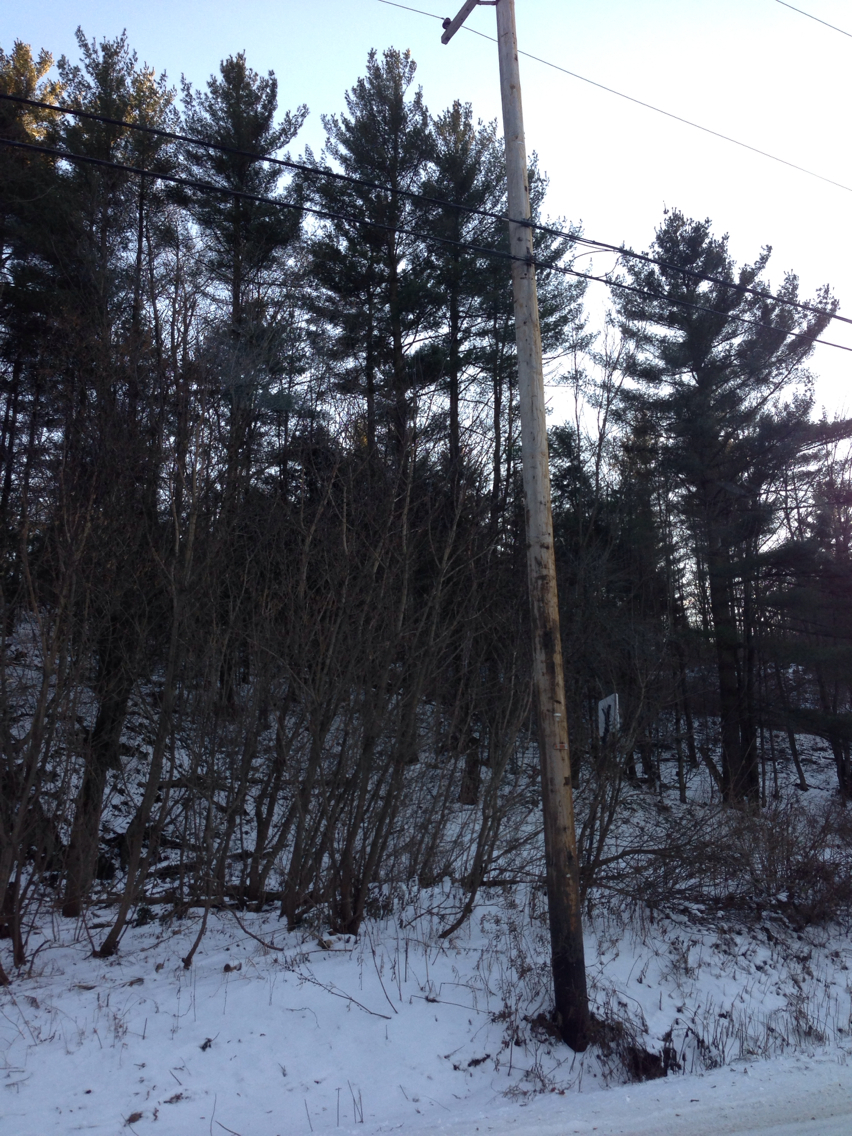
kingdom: Plantae
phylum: Tracheophyta
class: Pinopsida
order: Pinales
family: Pinaceae
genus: Pinus
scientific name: Pinus strobus
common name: Weymouth pine
